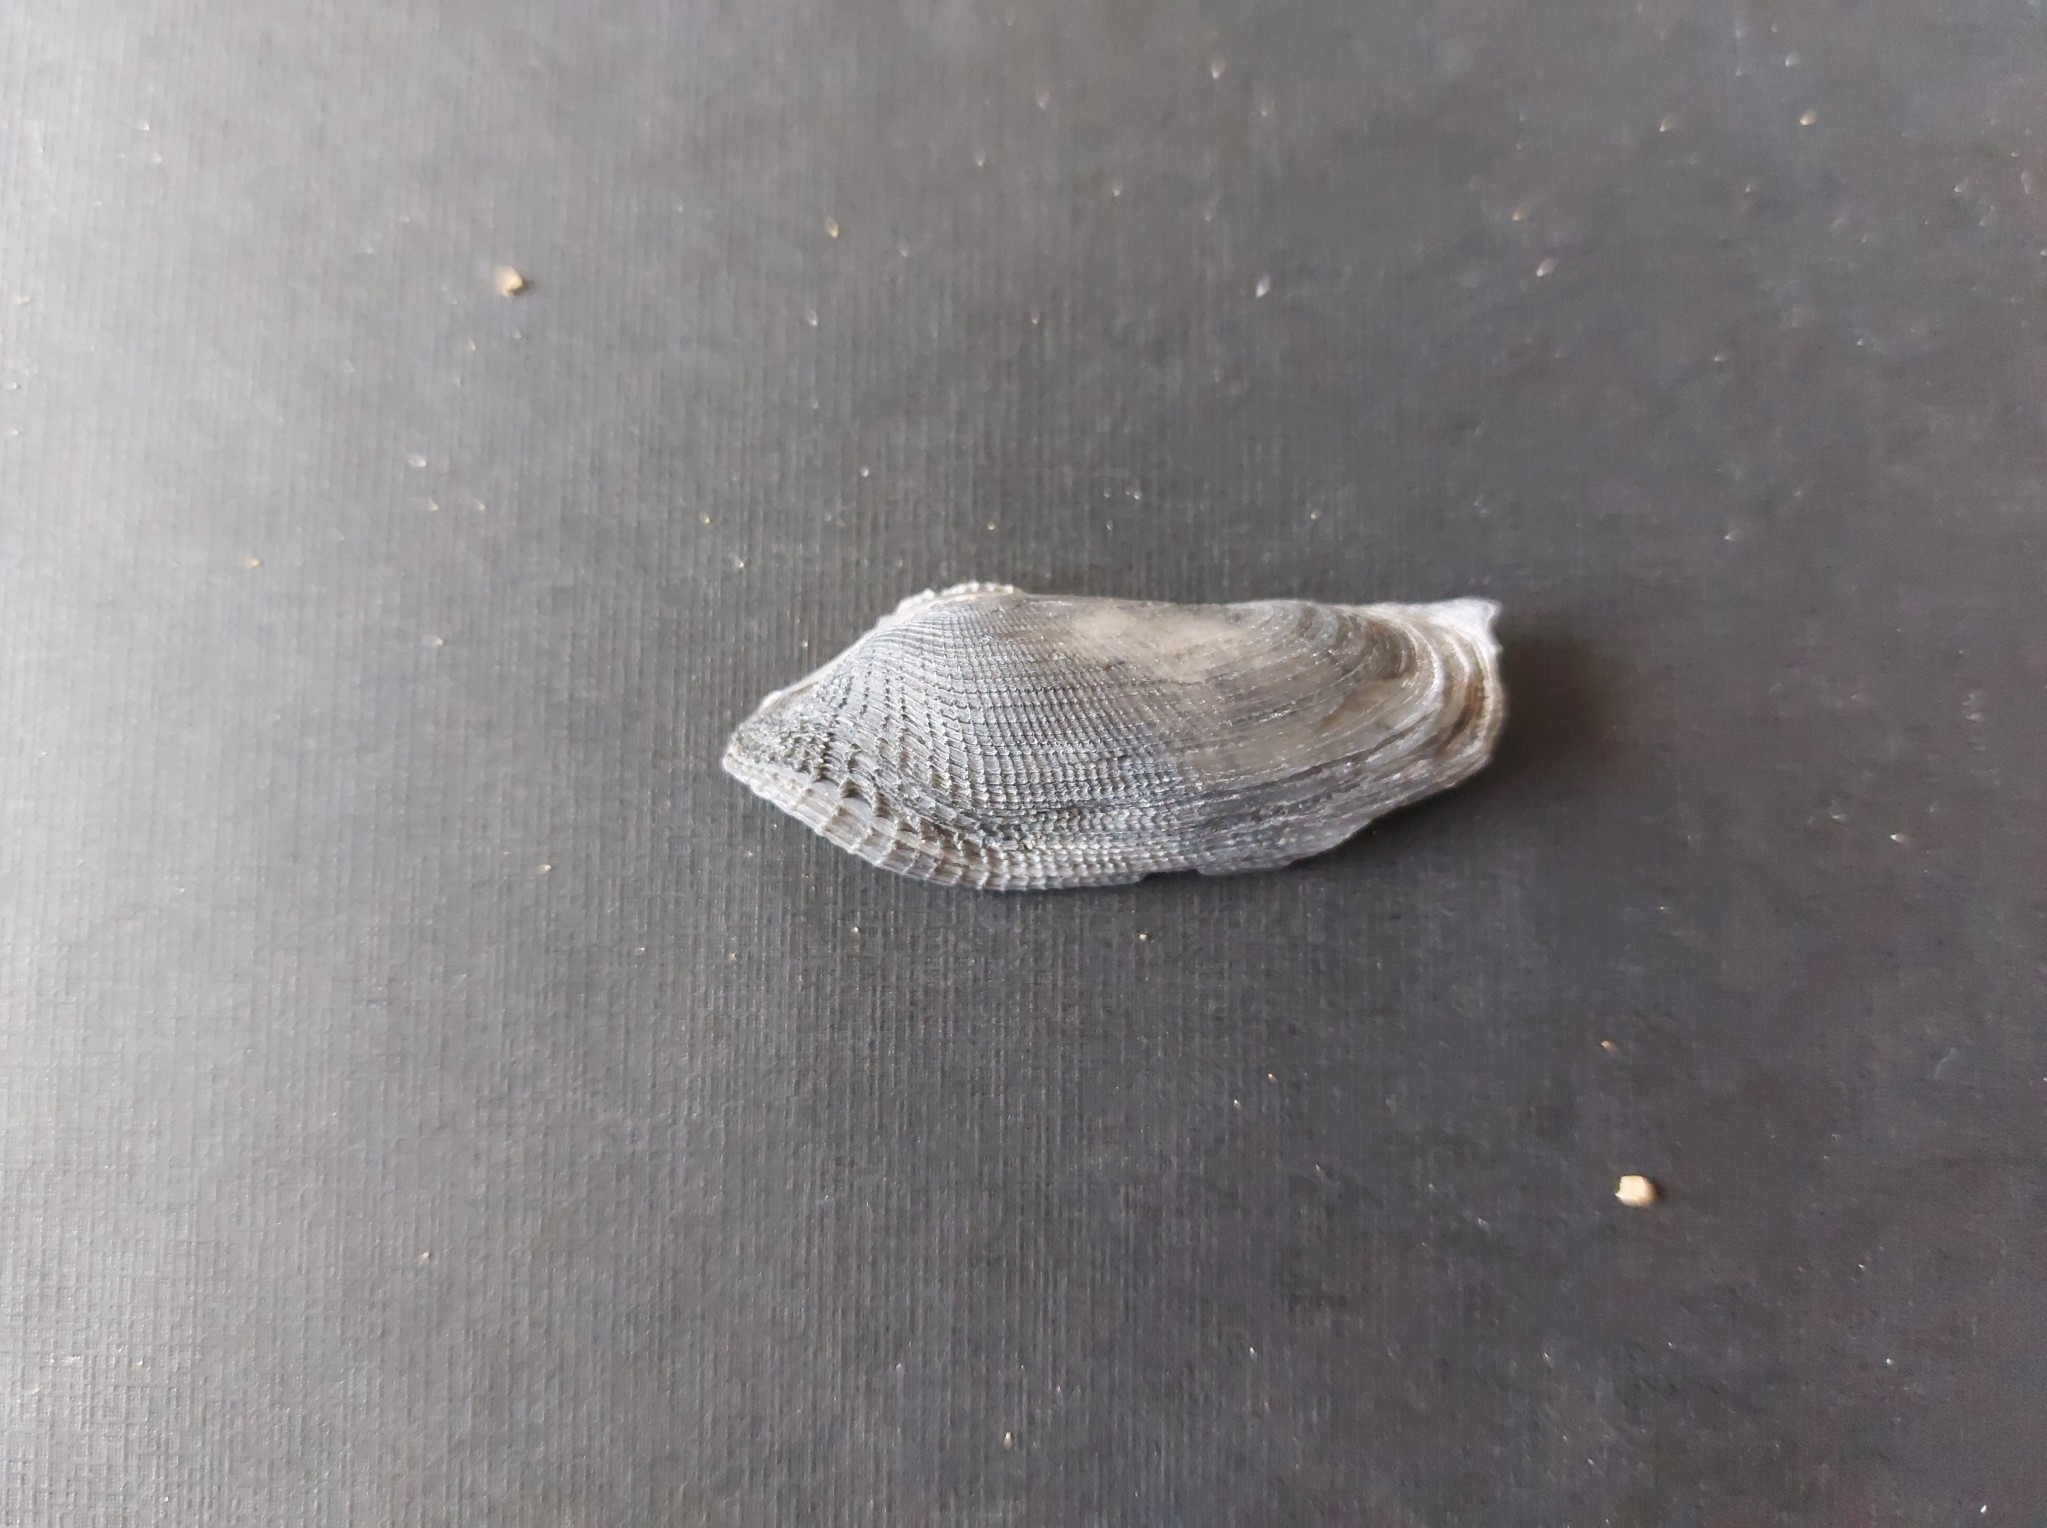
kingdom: Animalia
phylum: Mollusca
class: Bivalvia
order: Myida
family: Pholadidae
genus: Pholas
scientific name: Pholas dactylus
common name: Common piddock
